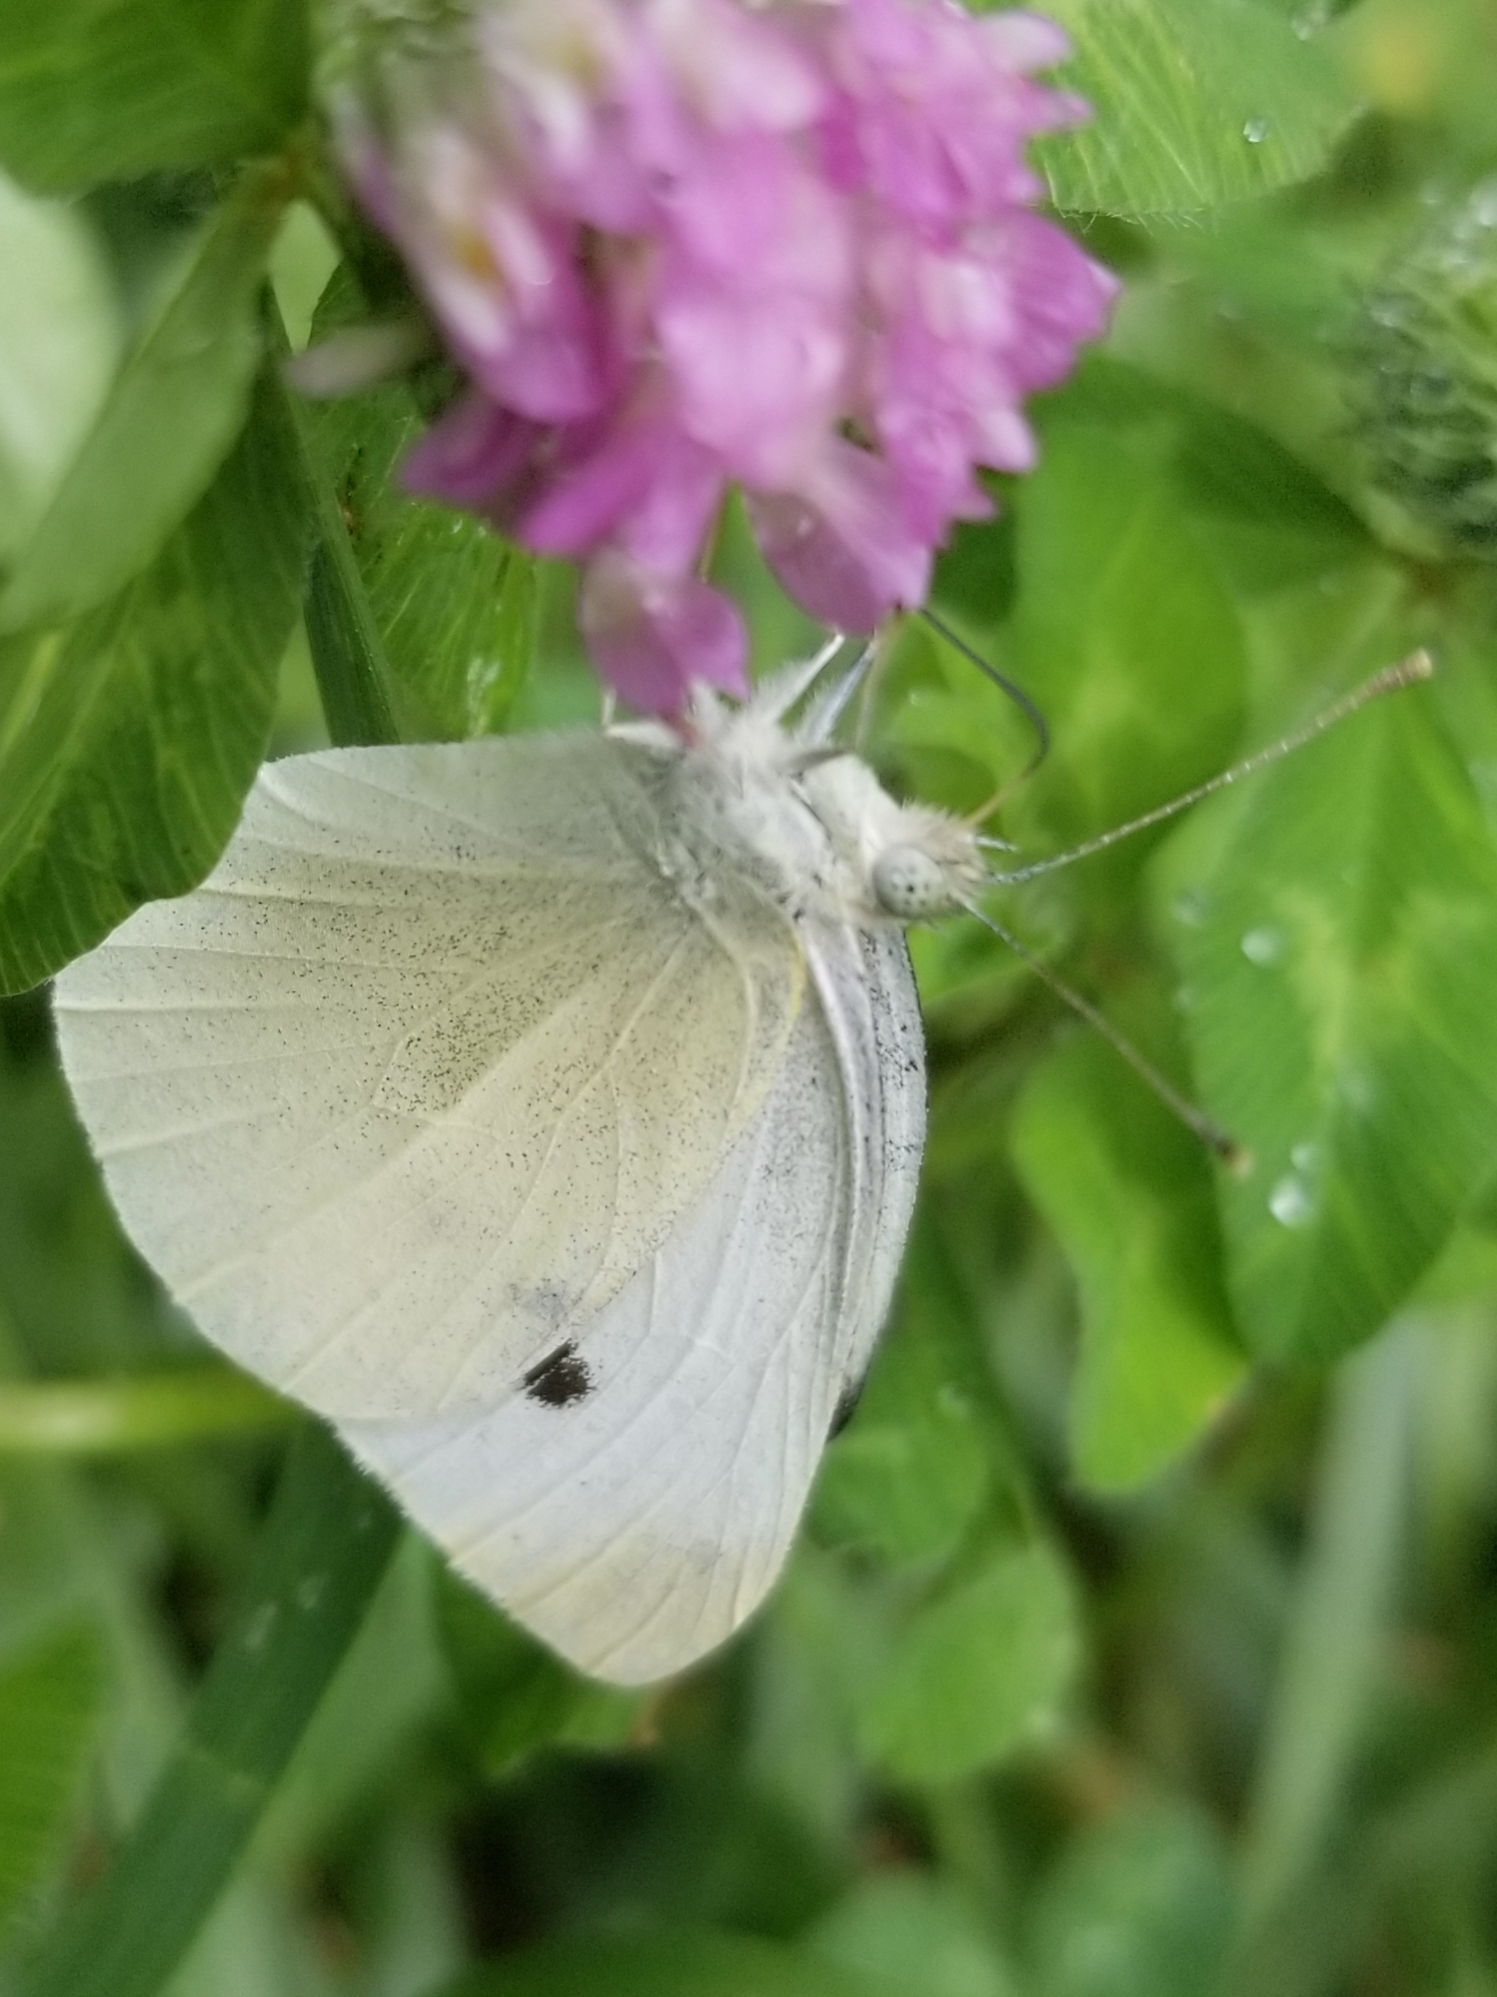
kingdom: Animalia
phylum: Arthropoda
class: Insecta
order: Lepidoptera
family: Pieridae
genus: Pieris
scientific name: Pieris rapae
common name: Small white
